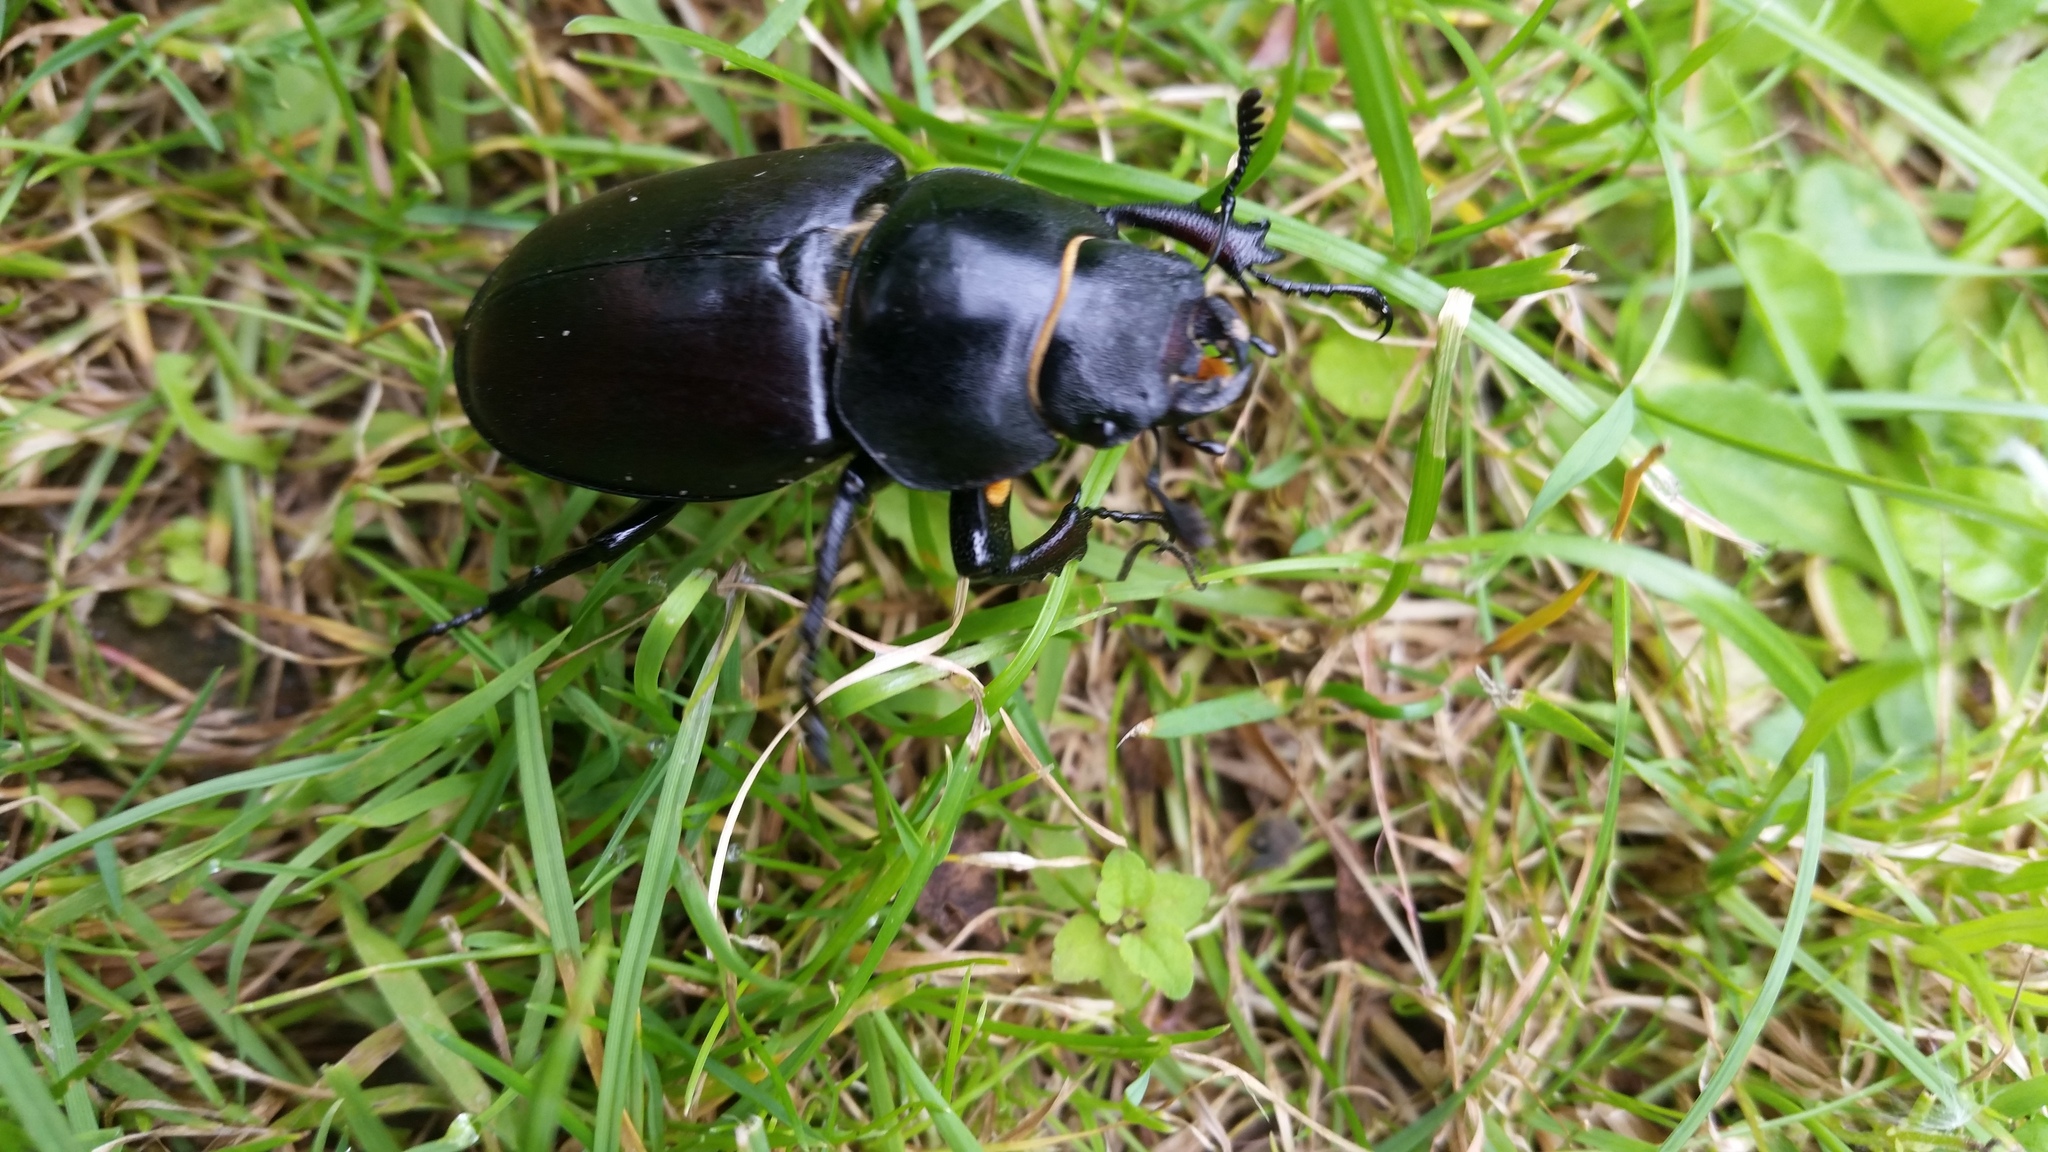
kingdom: Animalia
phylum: Arthropoda
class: Insecta
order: Coleoptera
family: Lucanidae
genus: Lucanus
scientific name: Lucanus cervus
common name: Stag beetle
